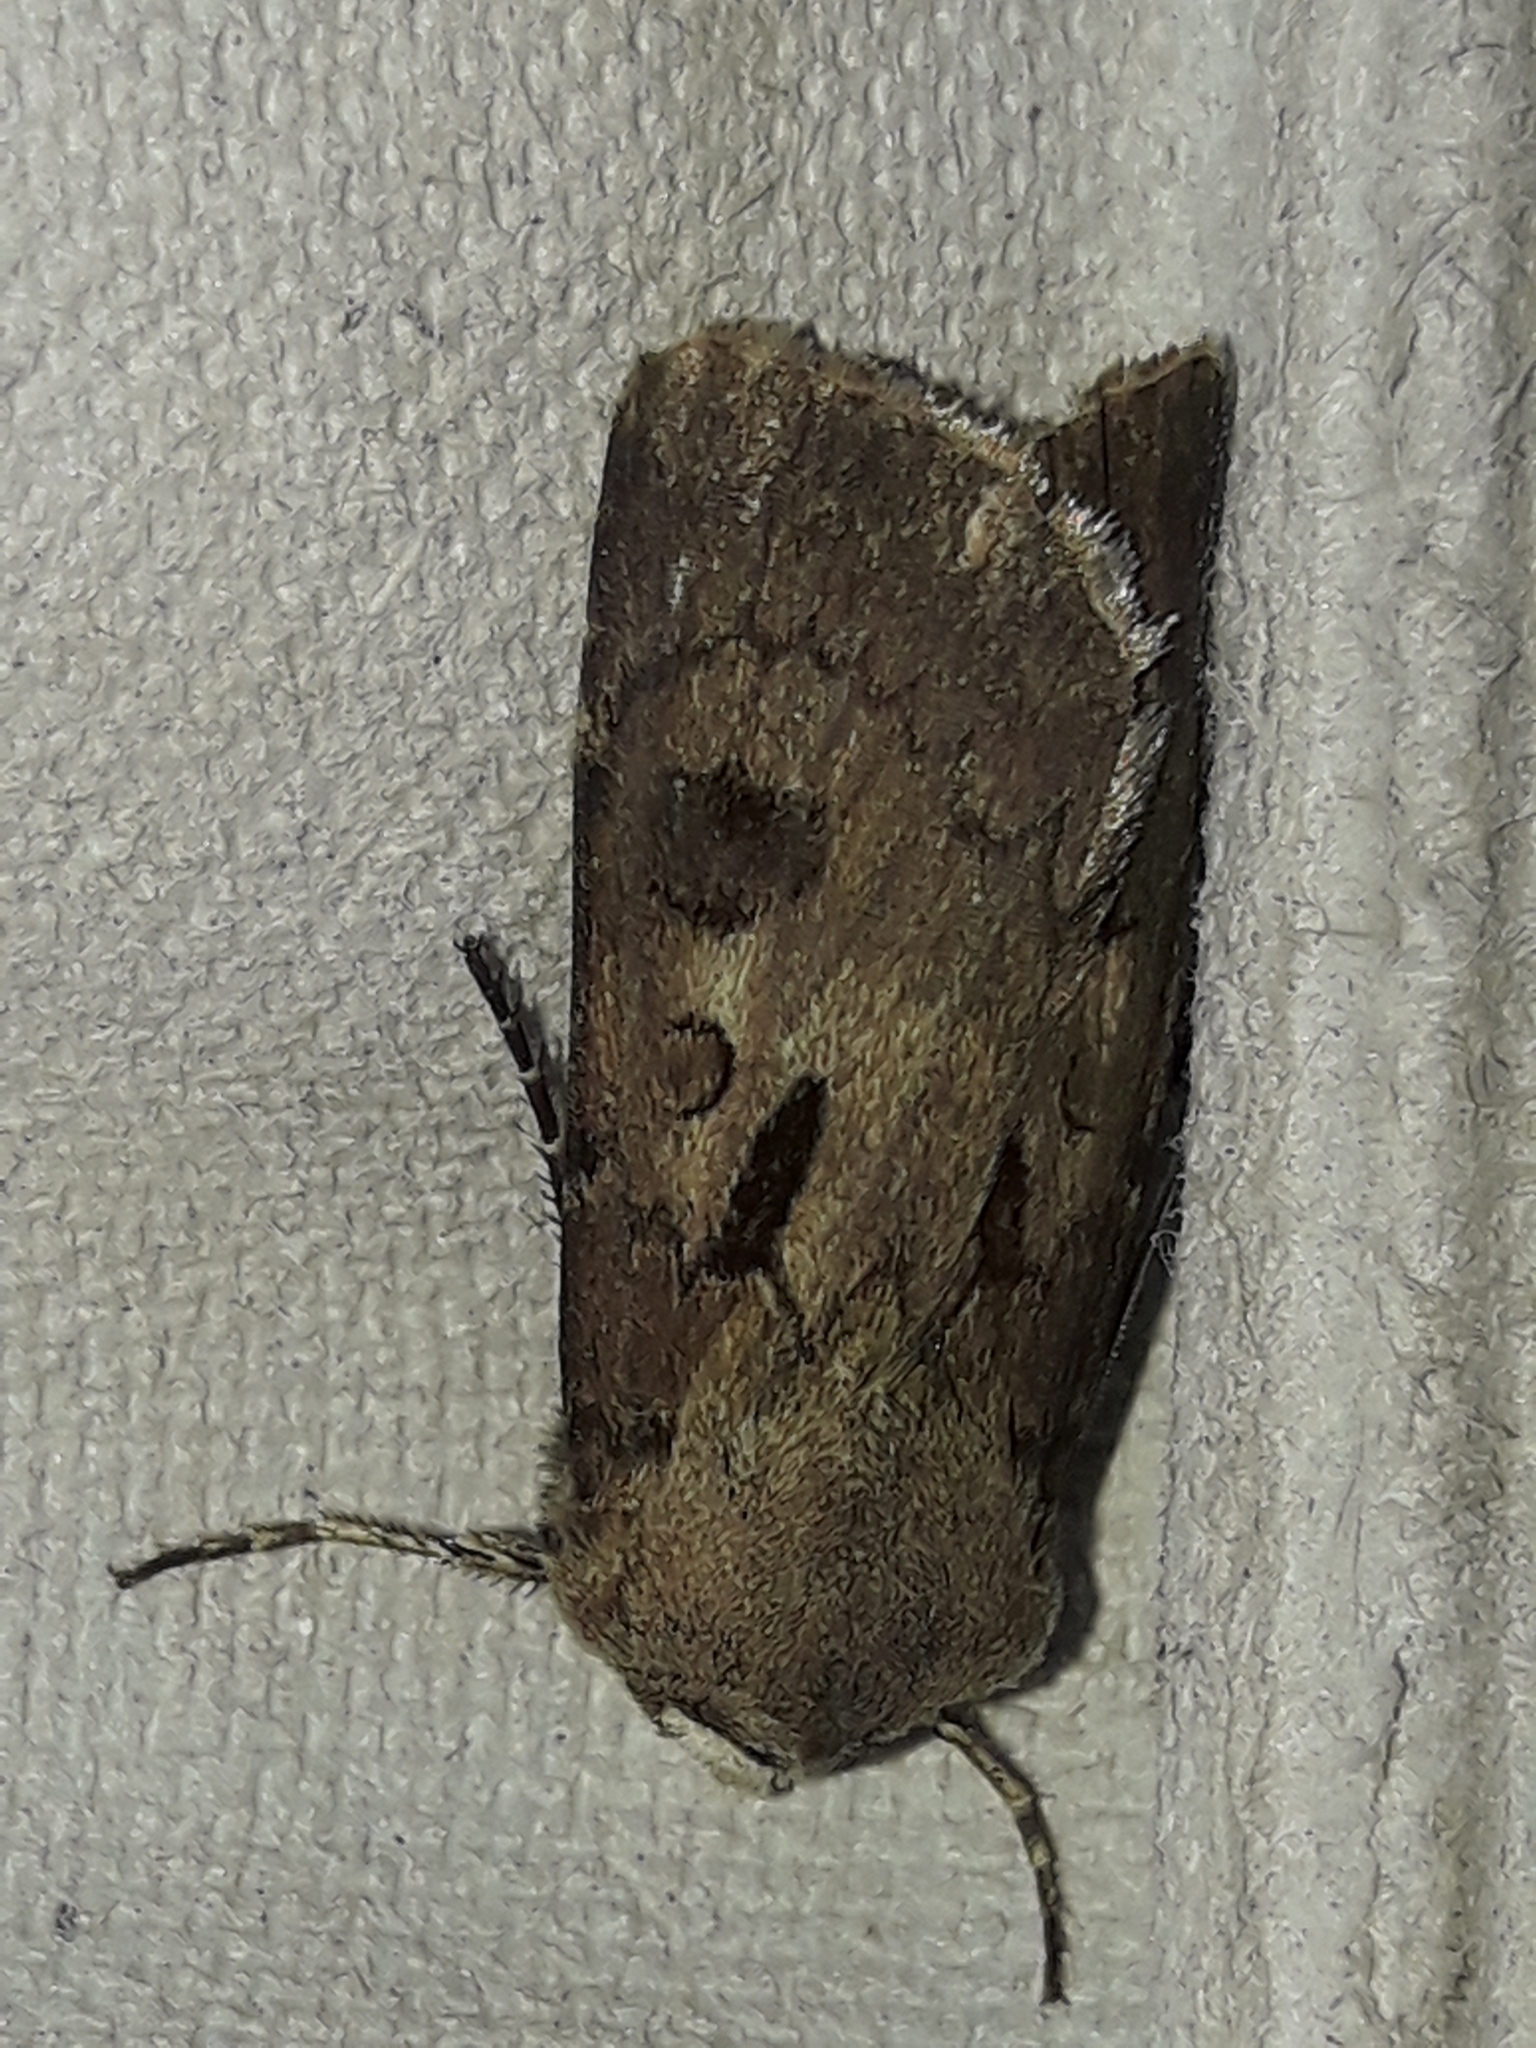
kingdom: Animalia
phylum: Arthropoda
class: Insecta
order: Lepidoptera
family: Noctuidae
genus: Agrotis
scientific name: Agrotis exclamationis
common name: Heart and dart
